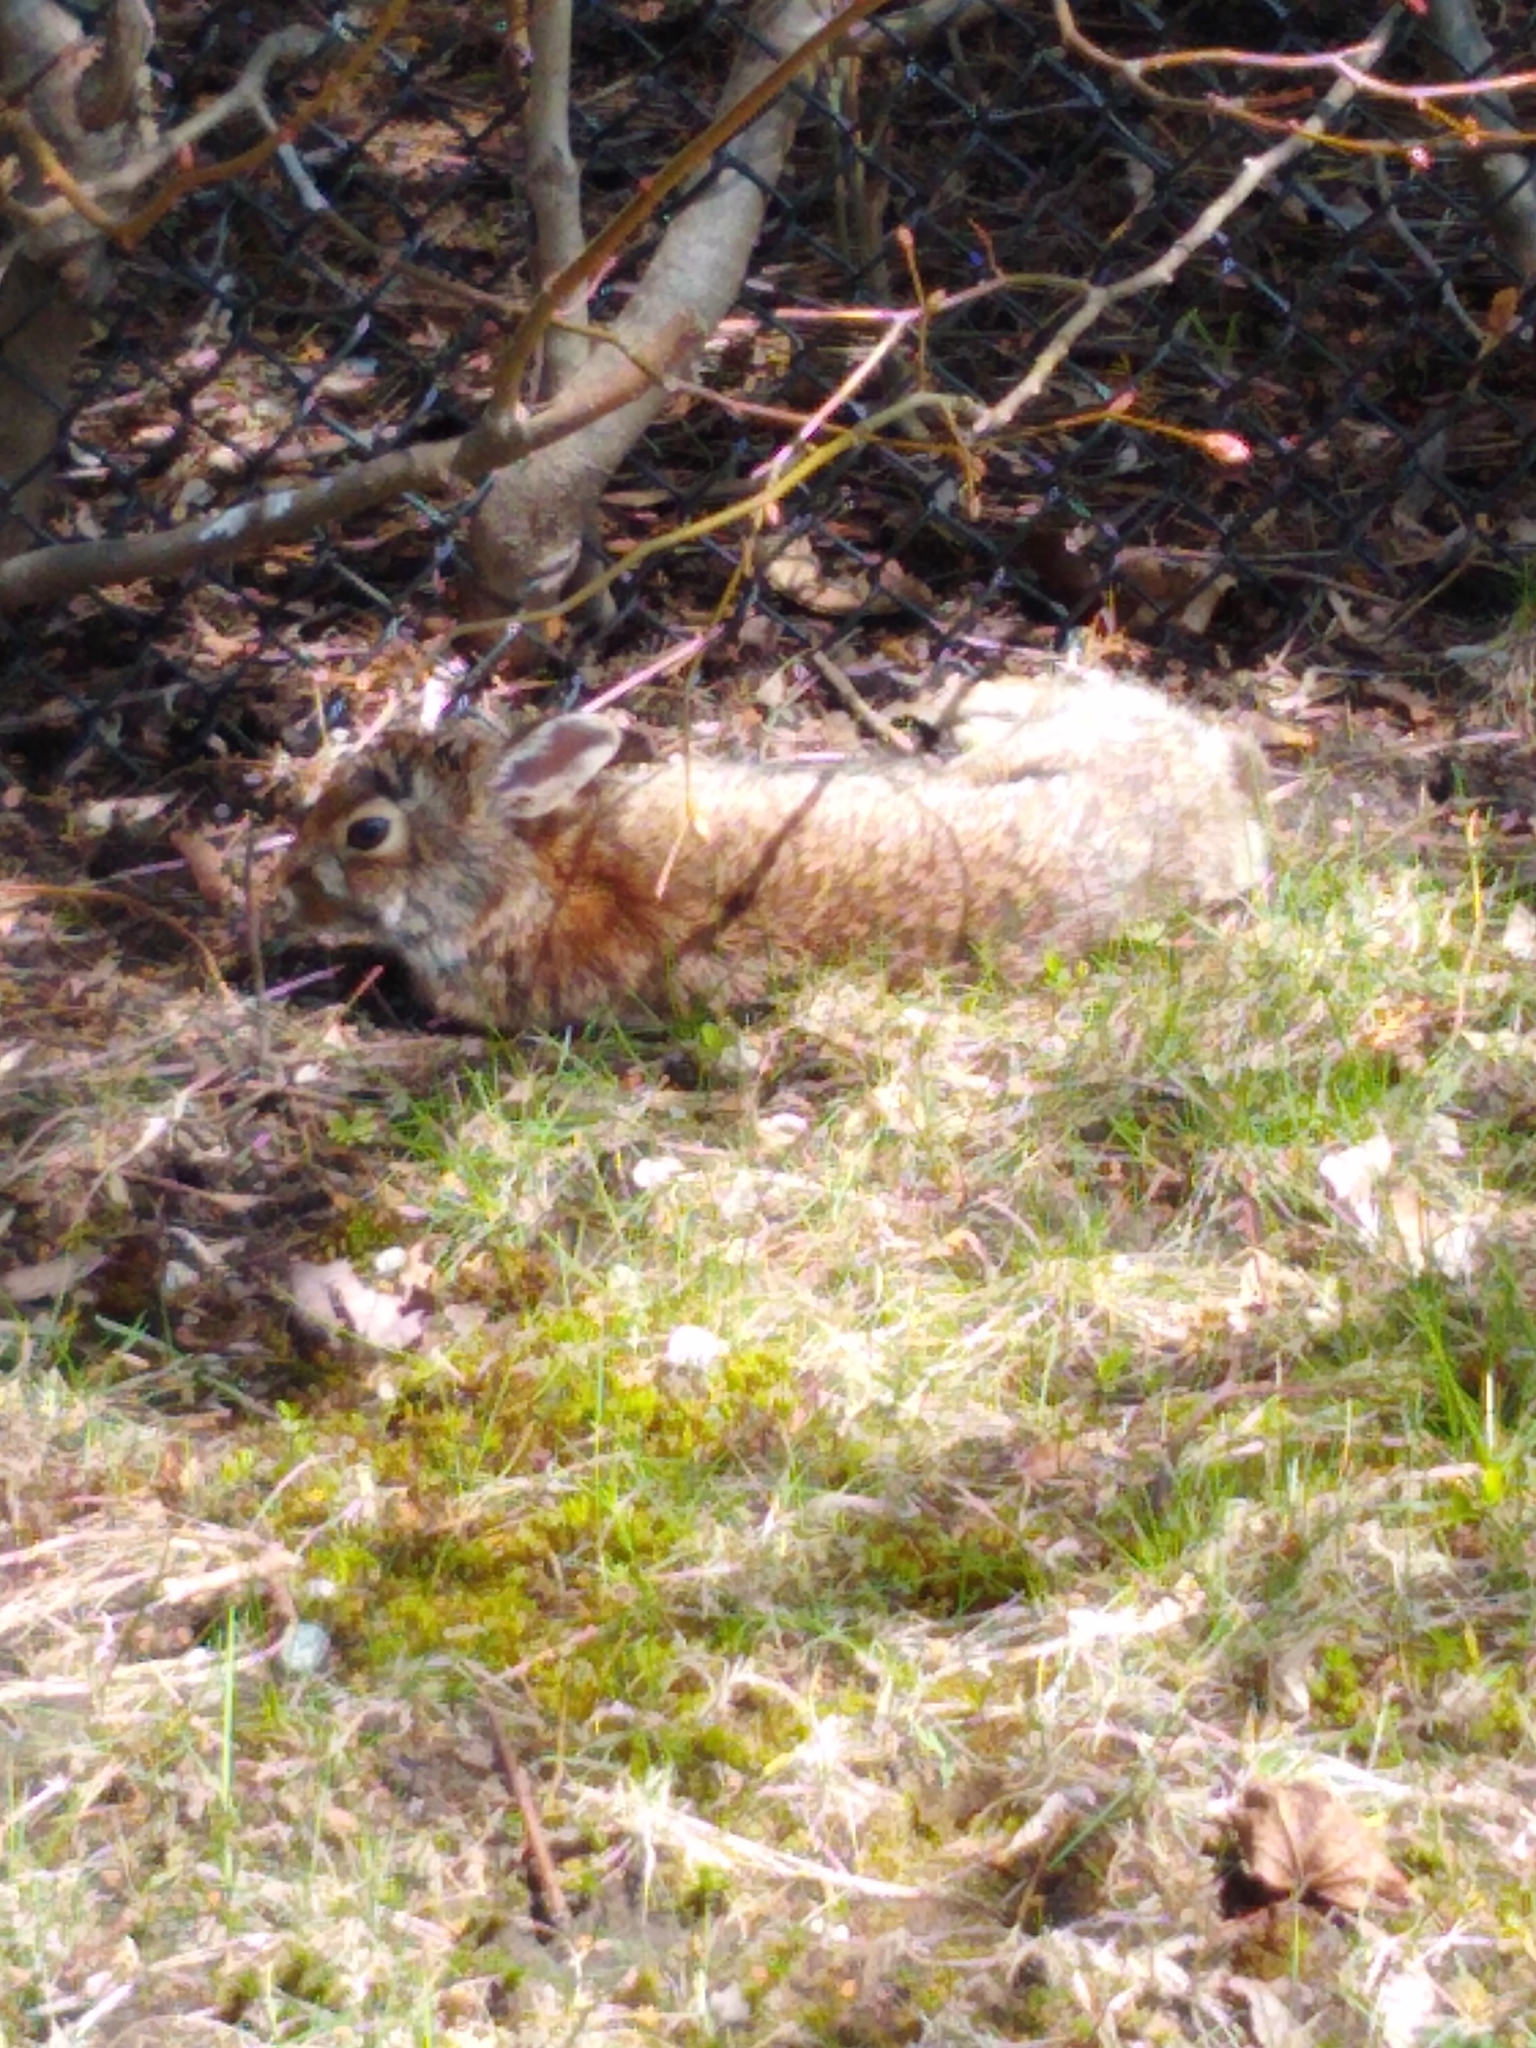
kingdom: Animalia
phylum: Chordata
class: Mammalia
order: Lagomorpha
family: Leporidae
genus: Sylvilagus
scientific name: Sylvilagus floridanus
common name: Eastern cottontail
